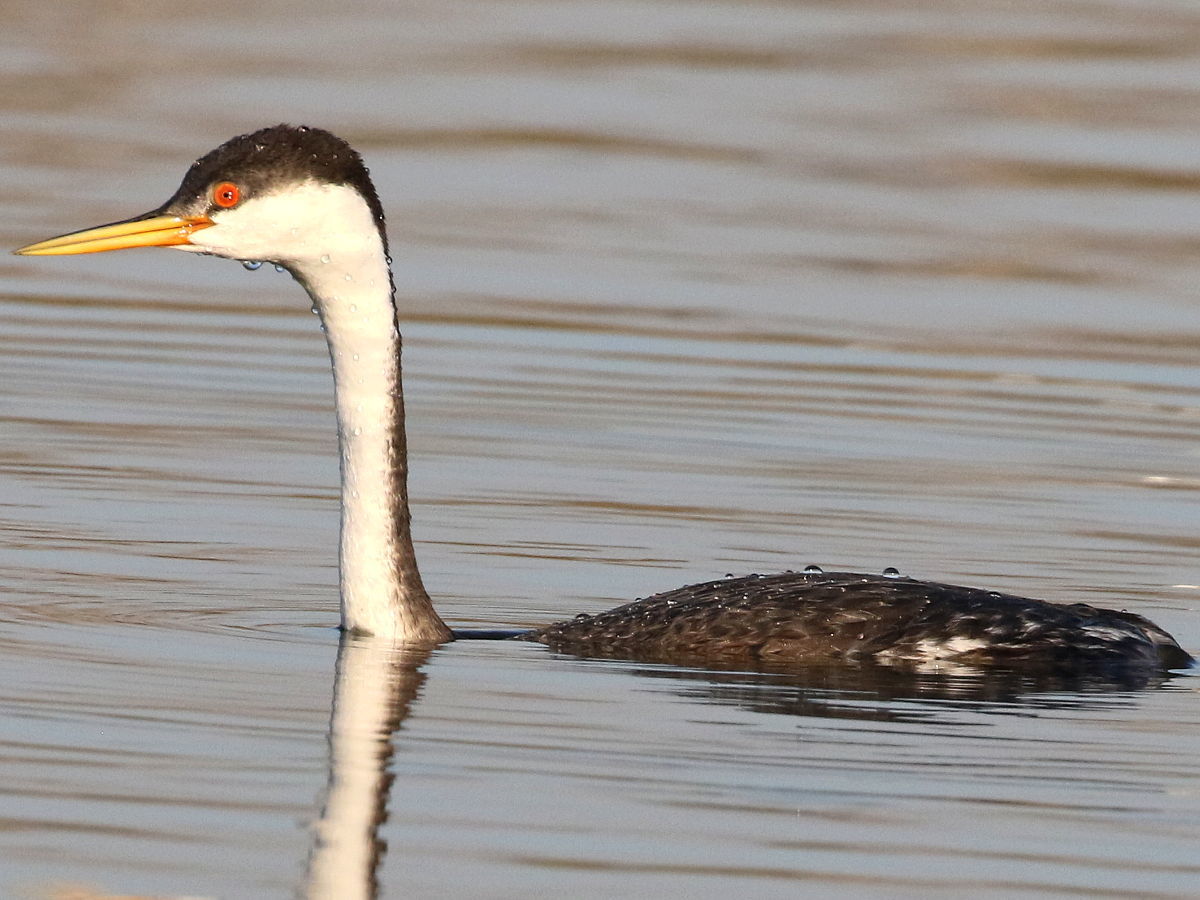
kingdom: Animalia
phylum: Chordata
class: Aves
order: Podicipediformes
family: Podicipedidae
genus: Aechmophorus
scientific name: Aechmophorus occidentalis
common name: Western grebe
